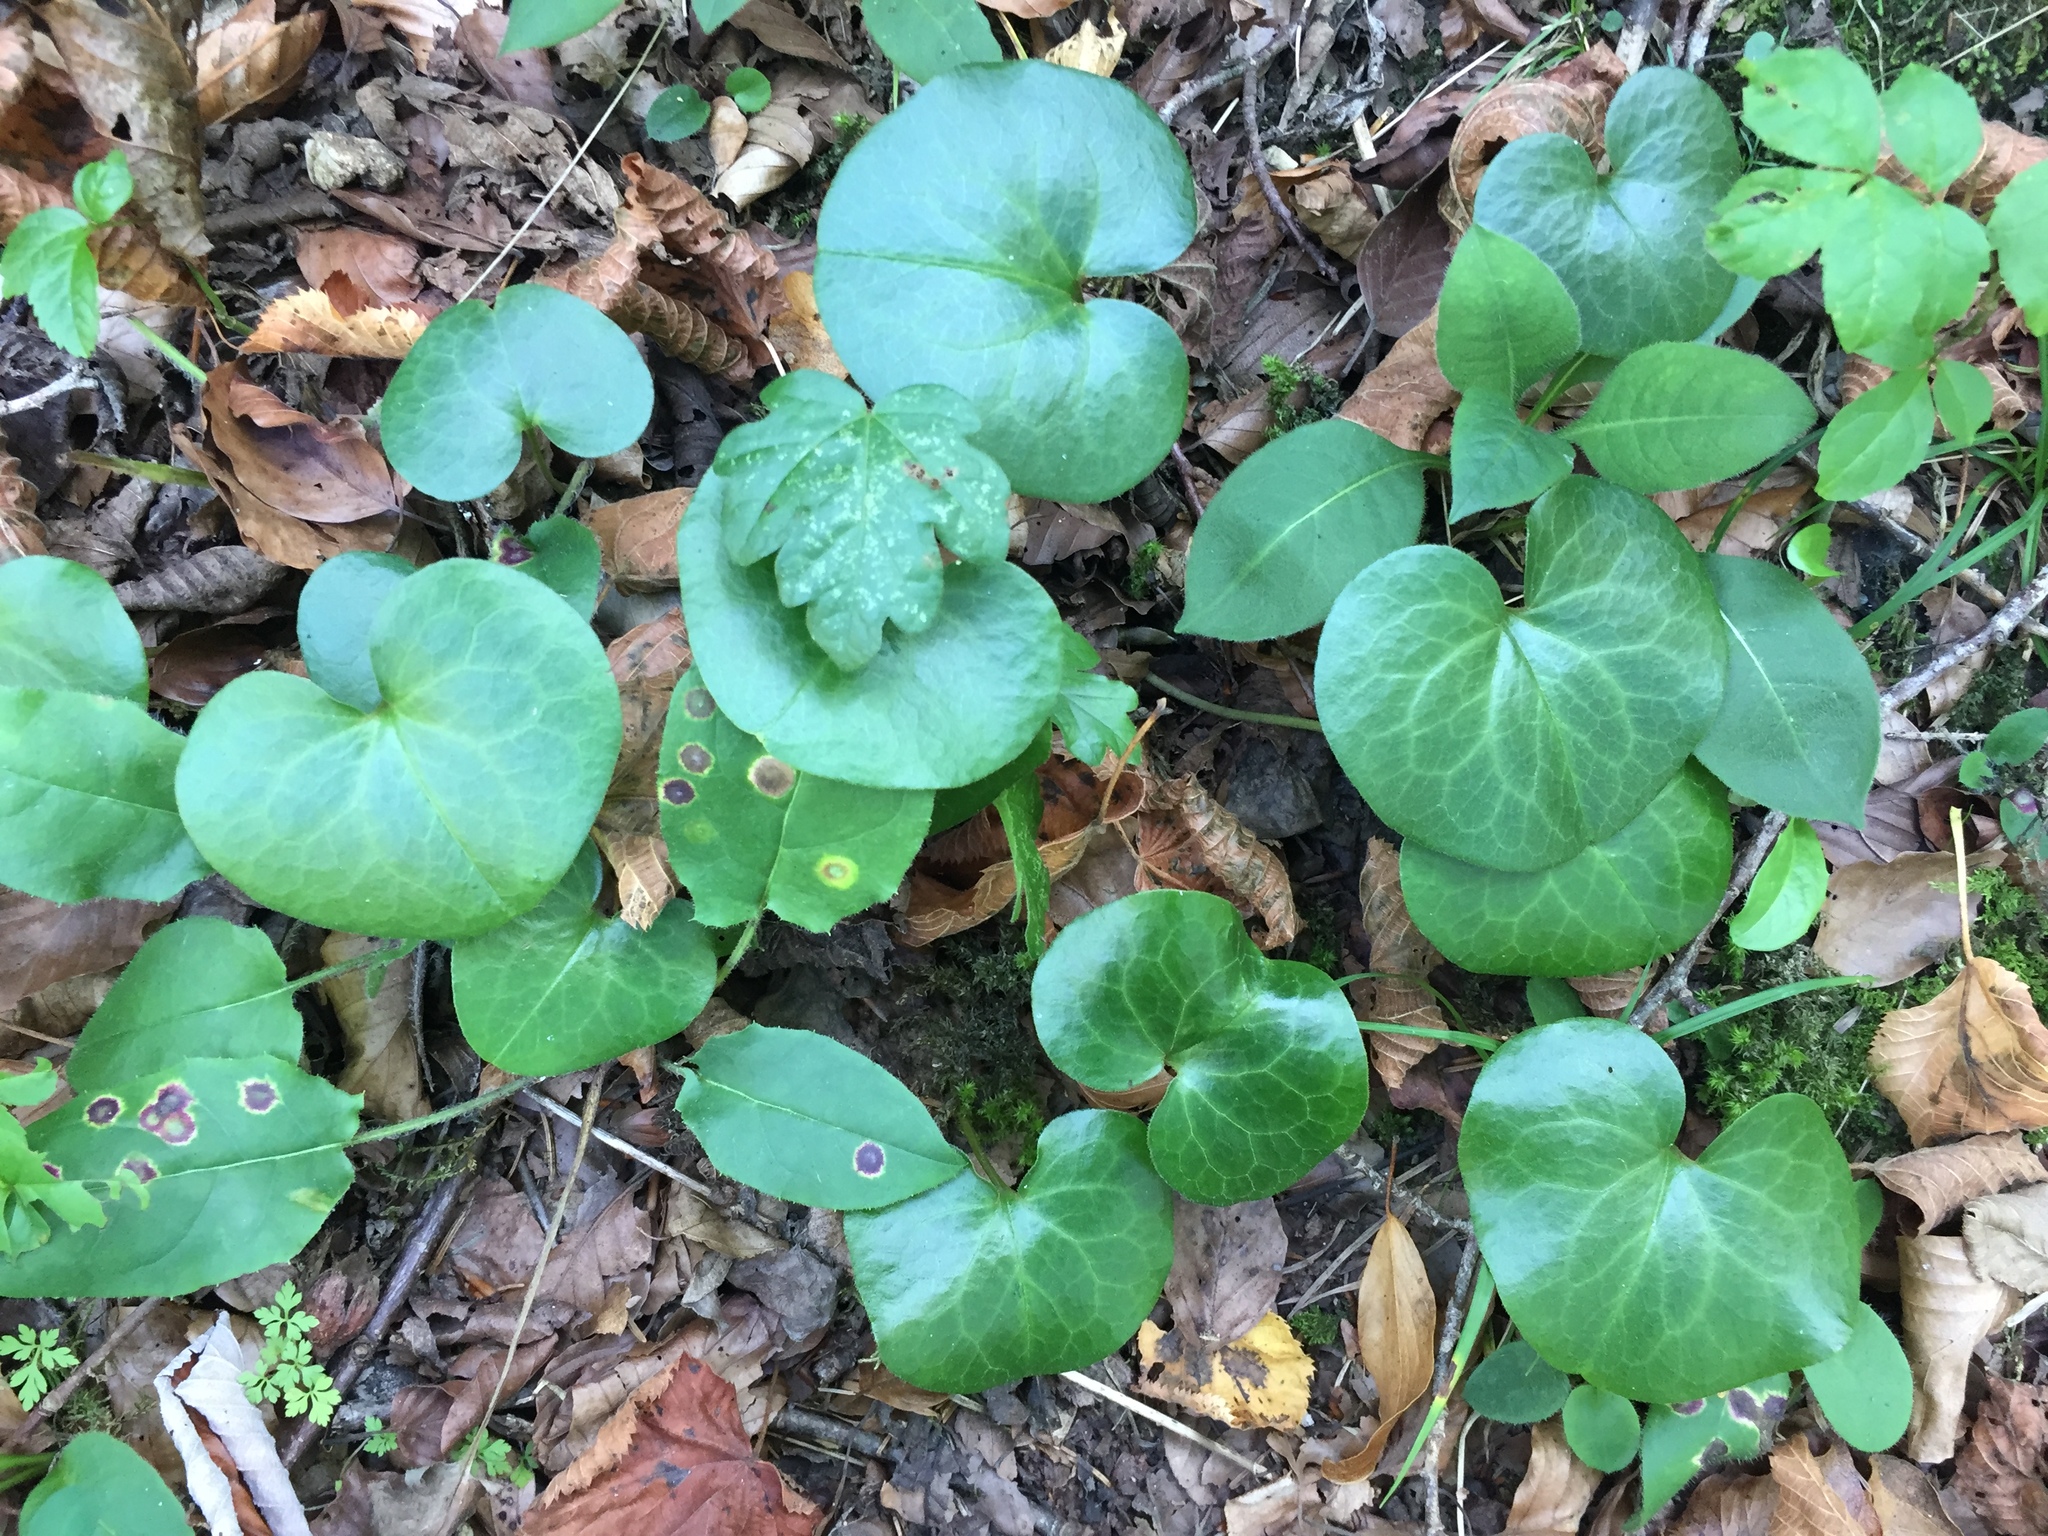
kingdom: Plantae
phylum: Tracheophyta
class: Magnoliopsida
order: Piperales
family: Aristolochiaceae
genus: Asarum
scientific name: Asarum europaeum
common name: Asarabacca
